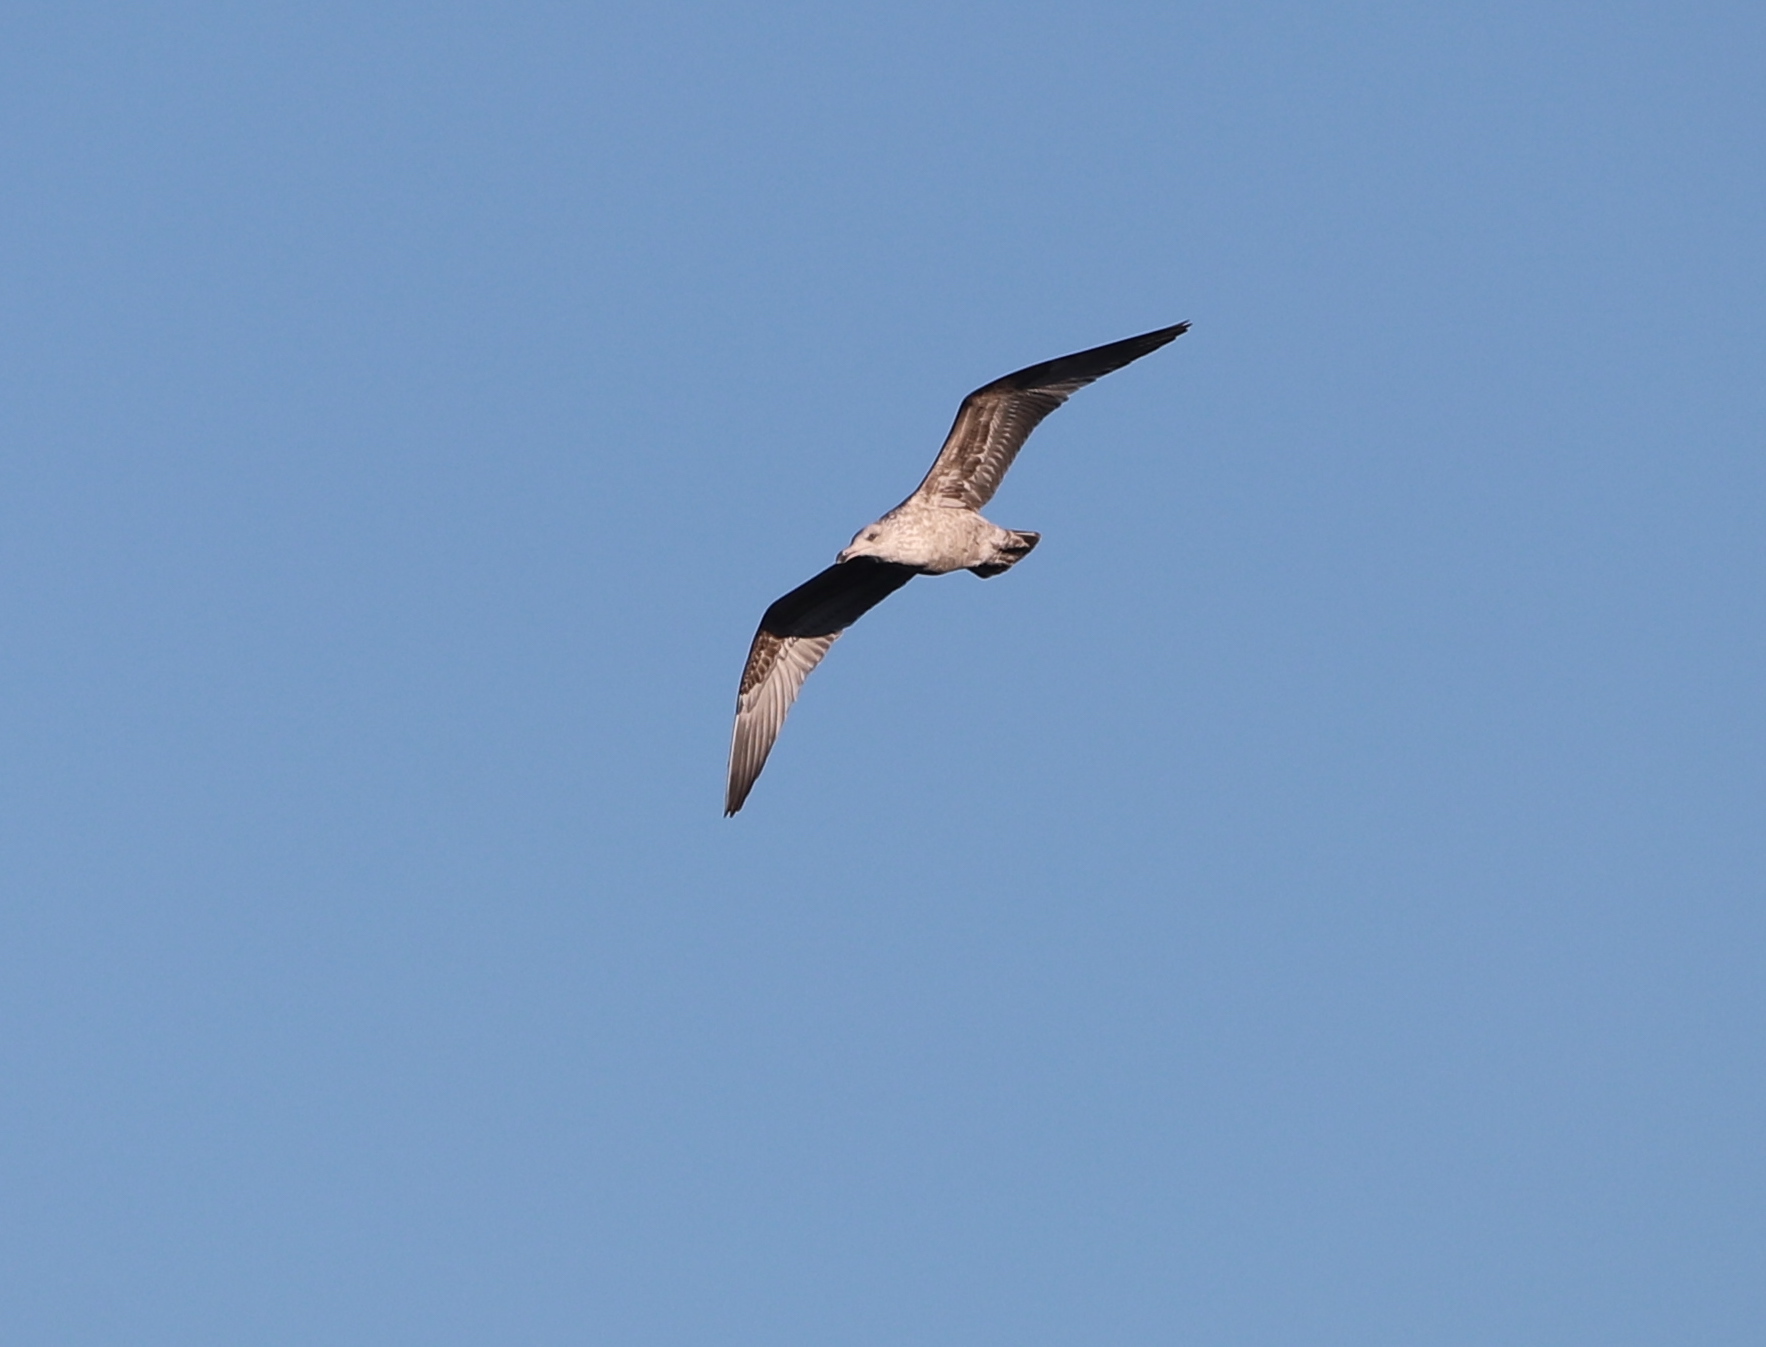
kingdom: Animalia
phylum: Chordata
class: Aves
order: Charadriiformes
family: Laridae
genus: Larus
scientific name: Larus argentatus
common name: Herring gull
